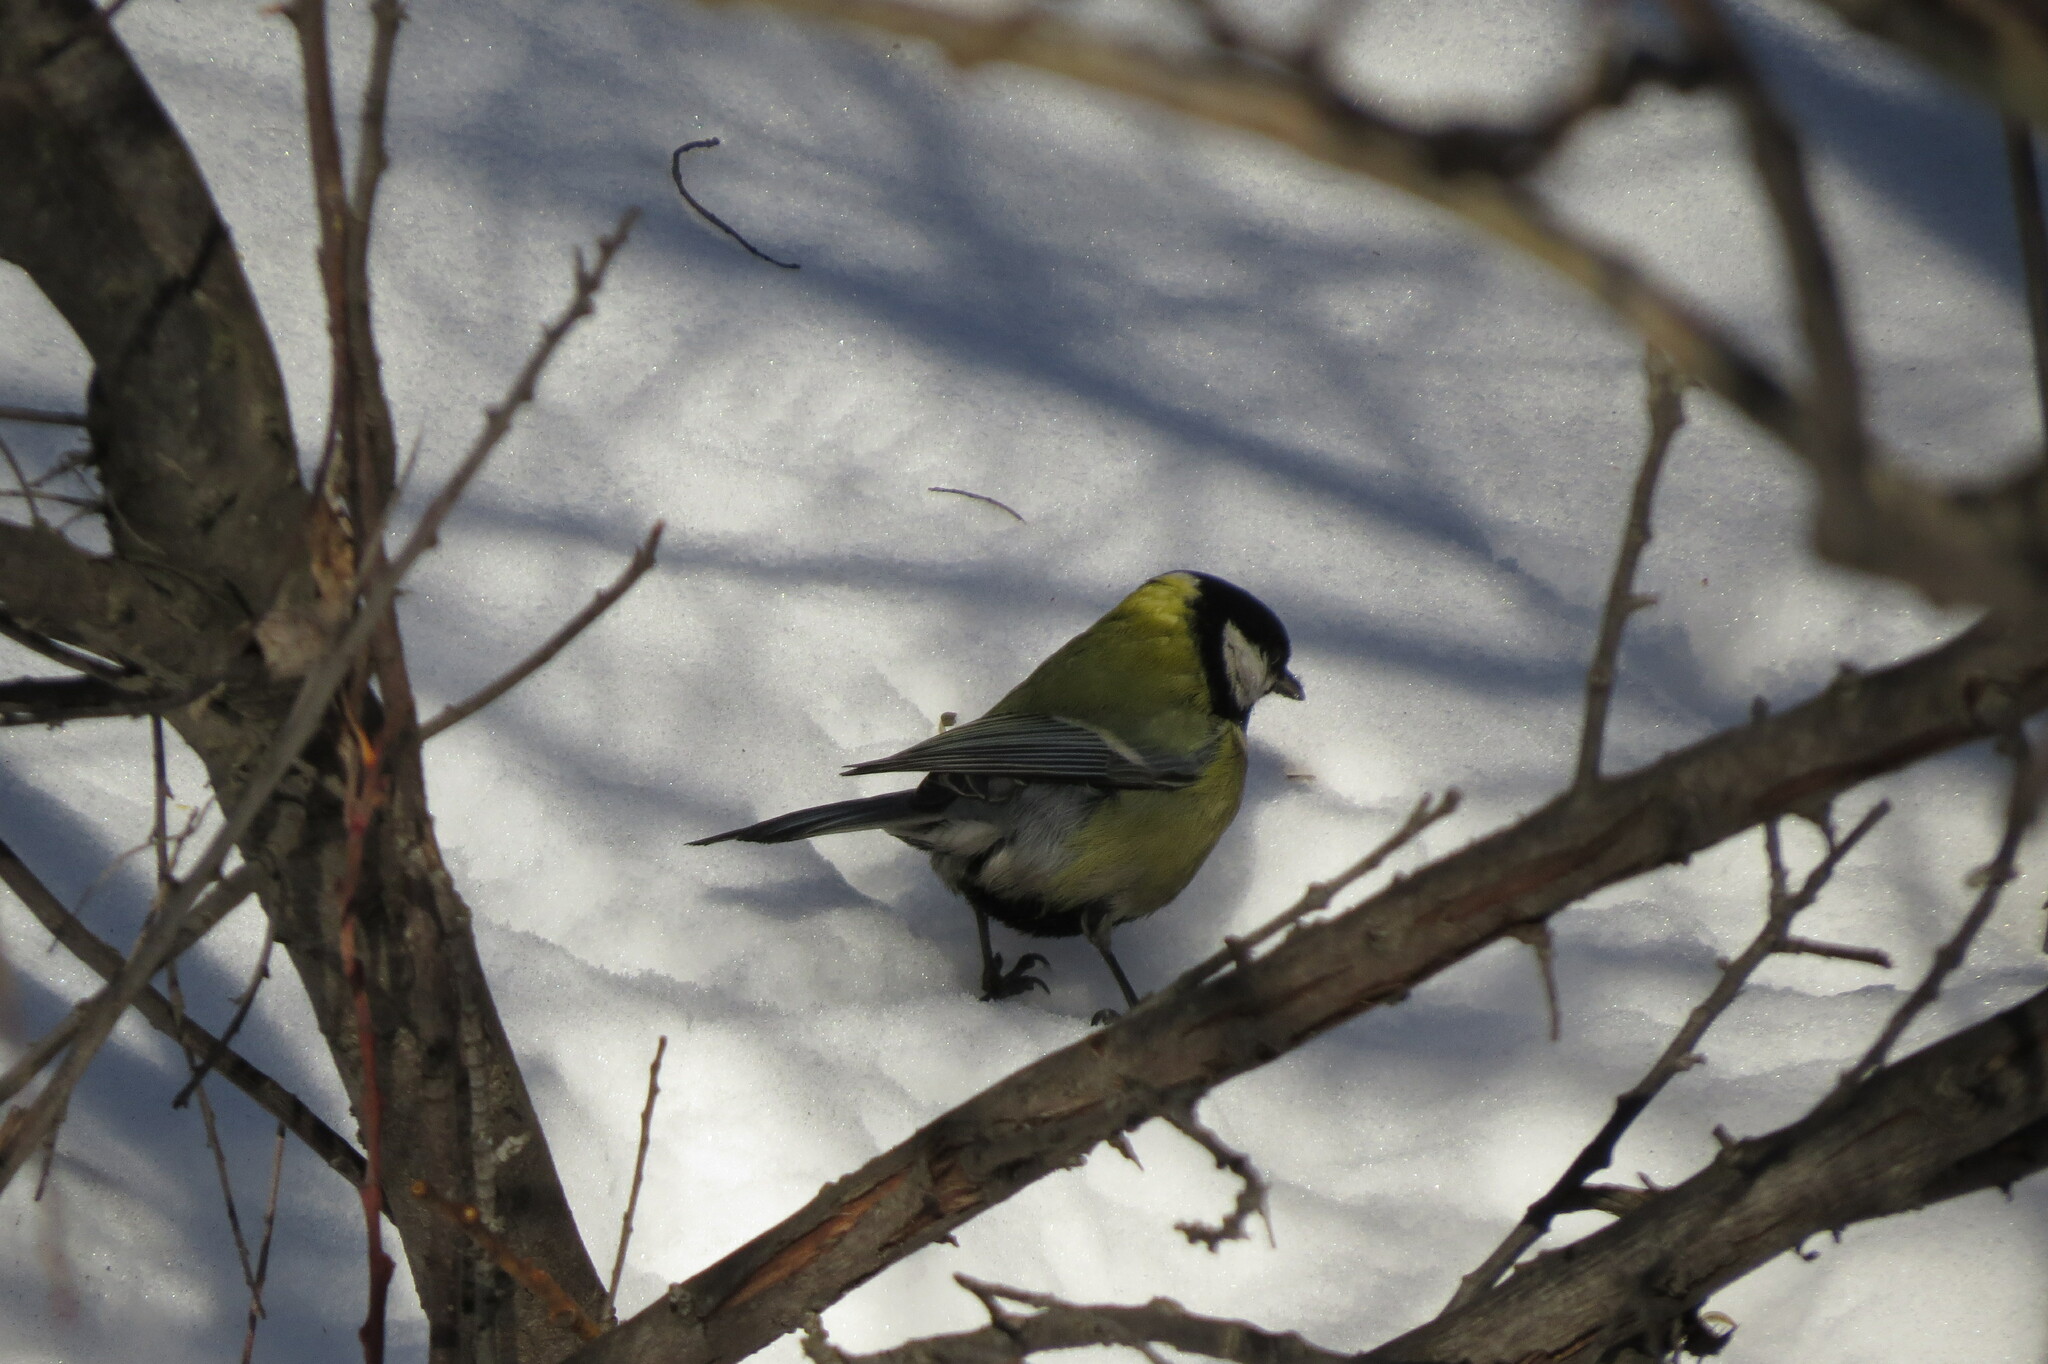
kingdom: Animalia
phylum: Chordata
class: Aves
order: Passeriformes
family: Paridae
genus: Parus
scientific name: Parus major
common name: Great tit
